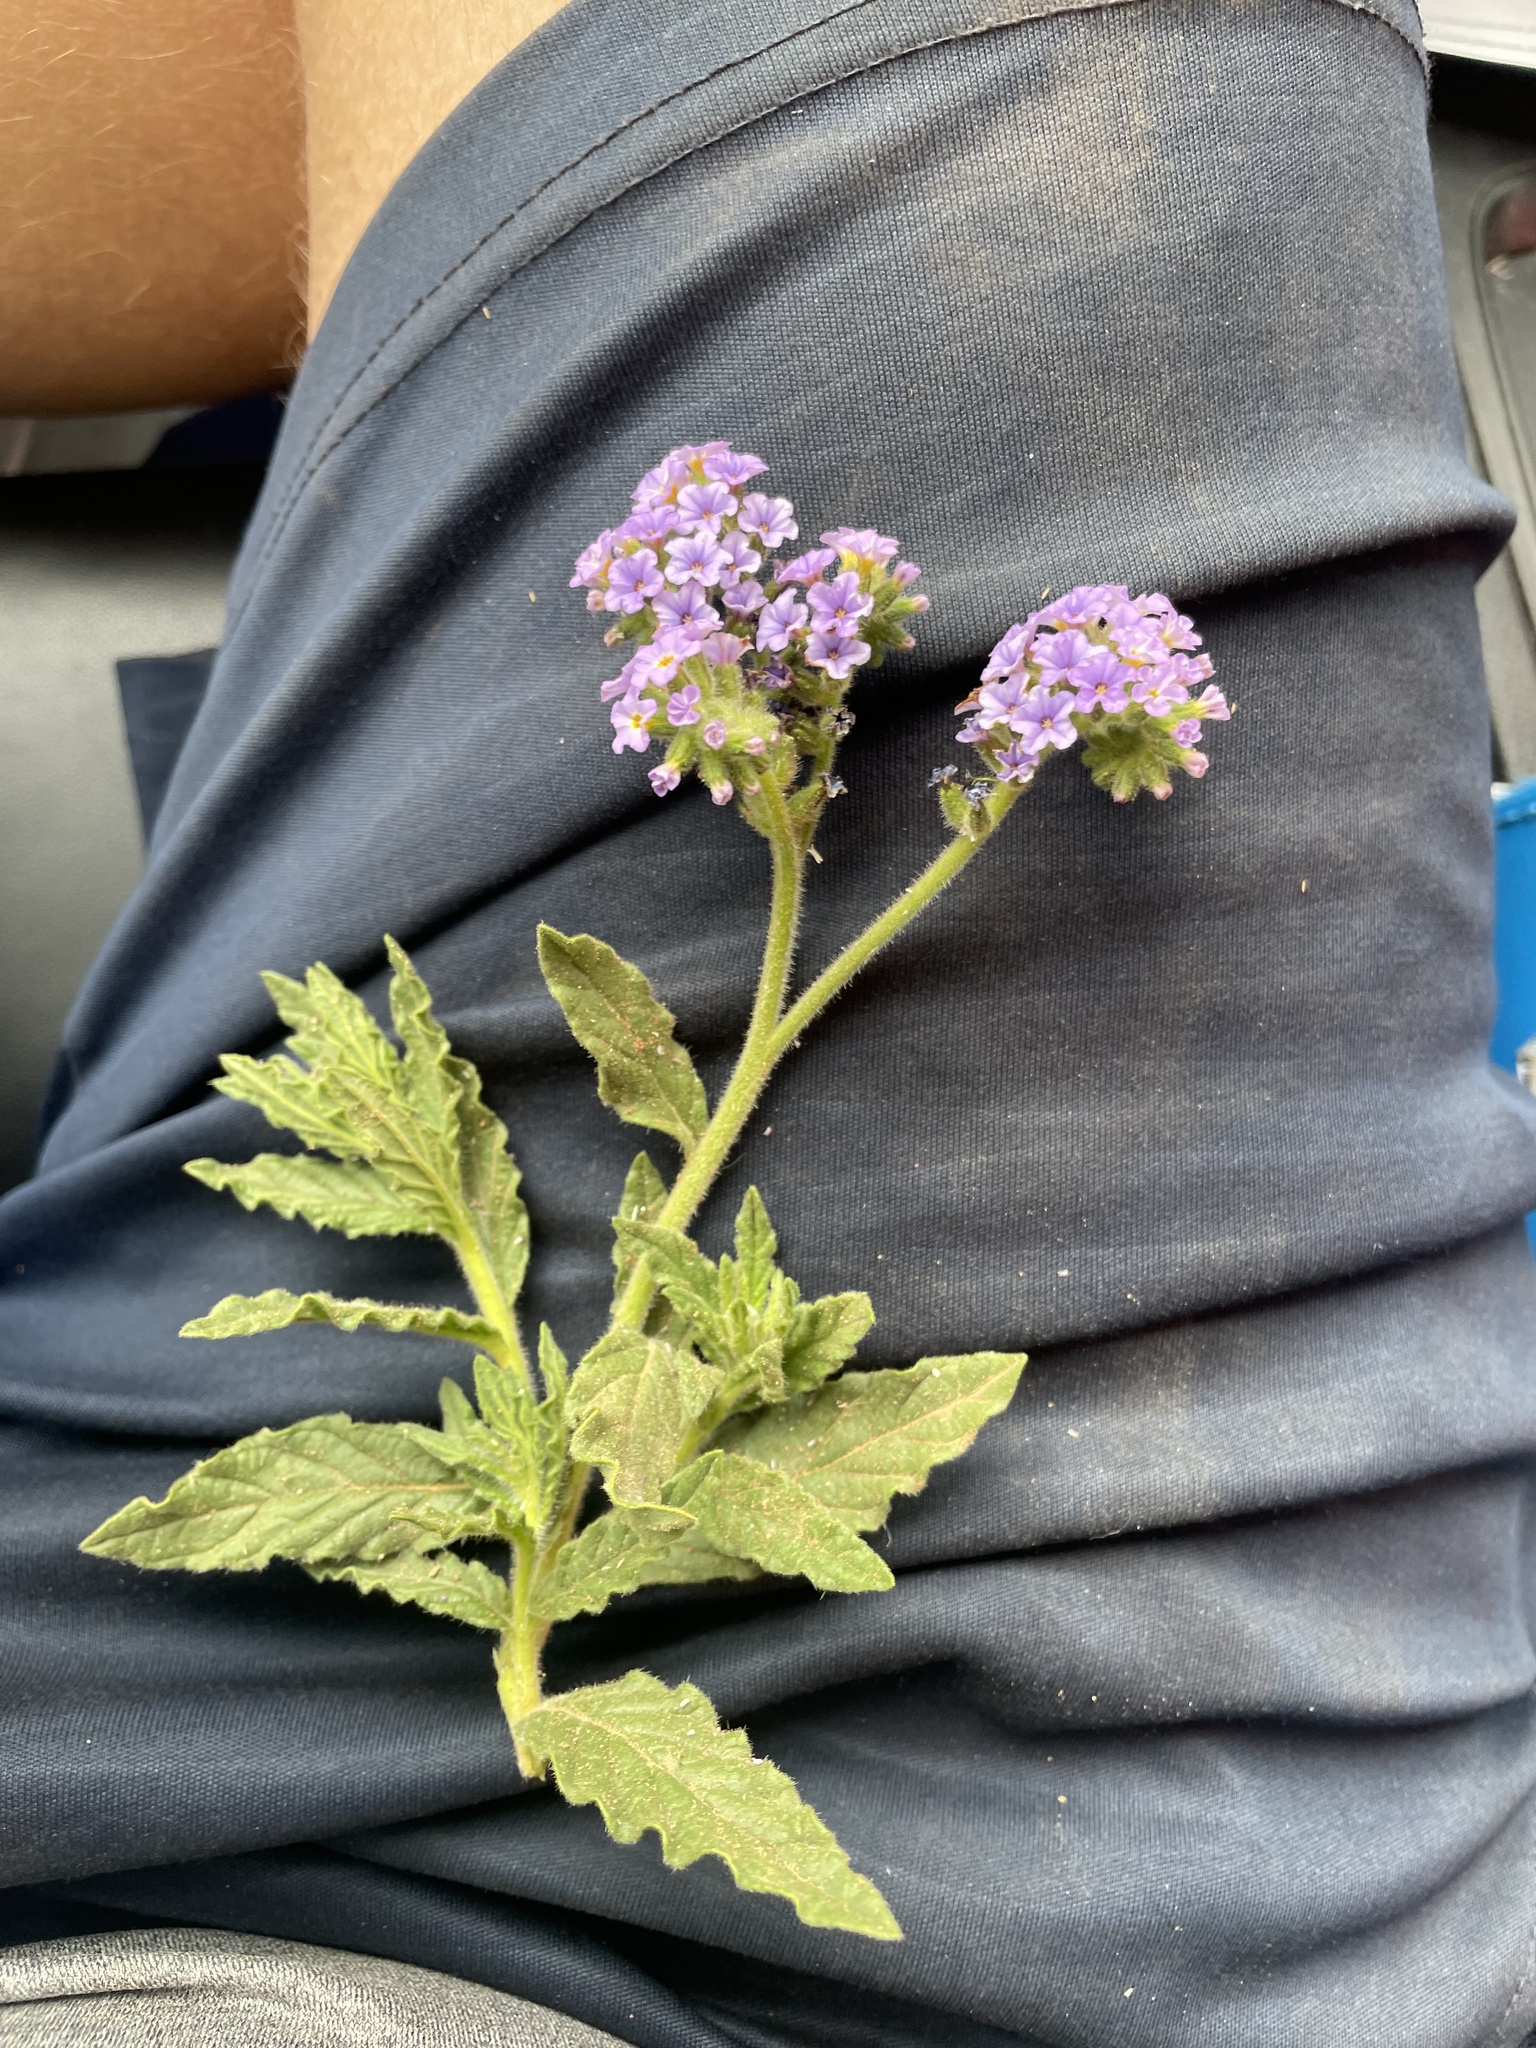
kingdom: Plantae
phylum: Tracheophyta
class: Magnoliopsida
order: Boraginales
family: Heliotropiaceae
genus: Heliotropium
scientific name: Heliotropium amplexicaule
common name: Clasping heliotrope
